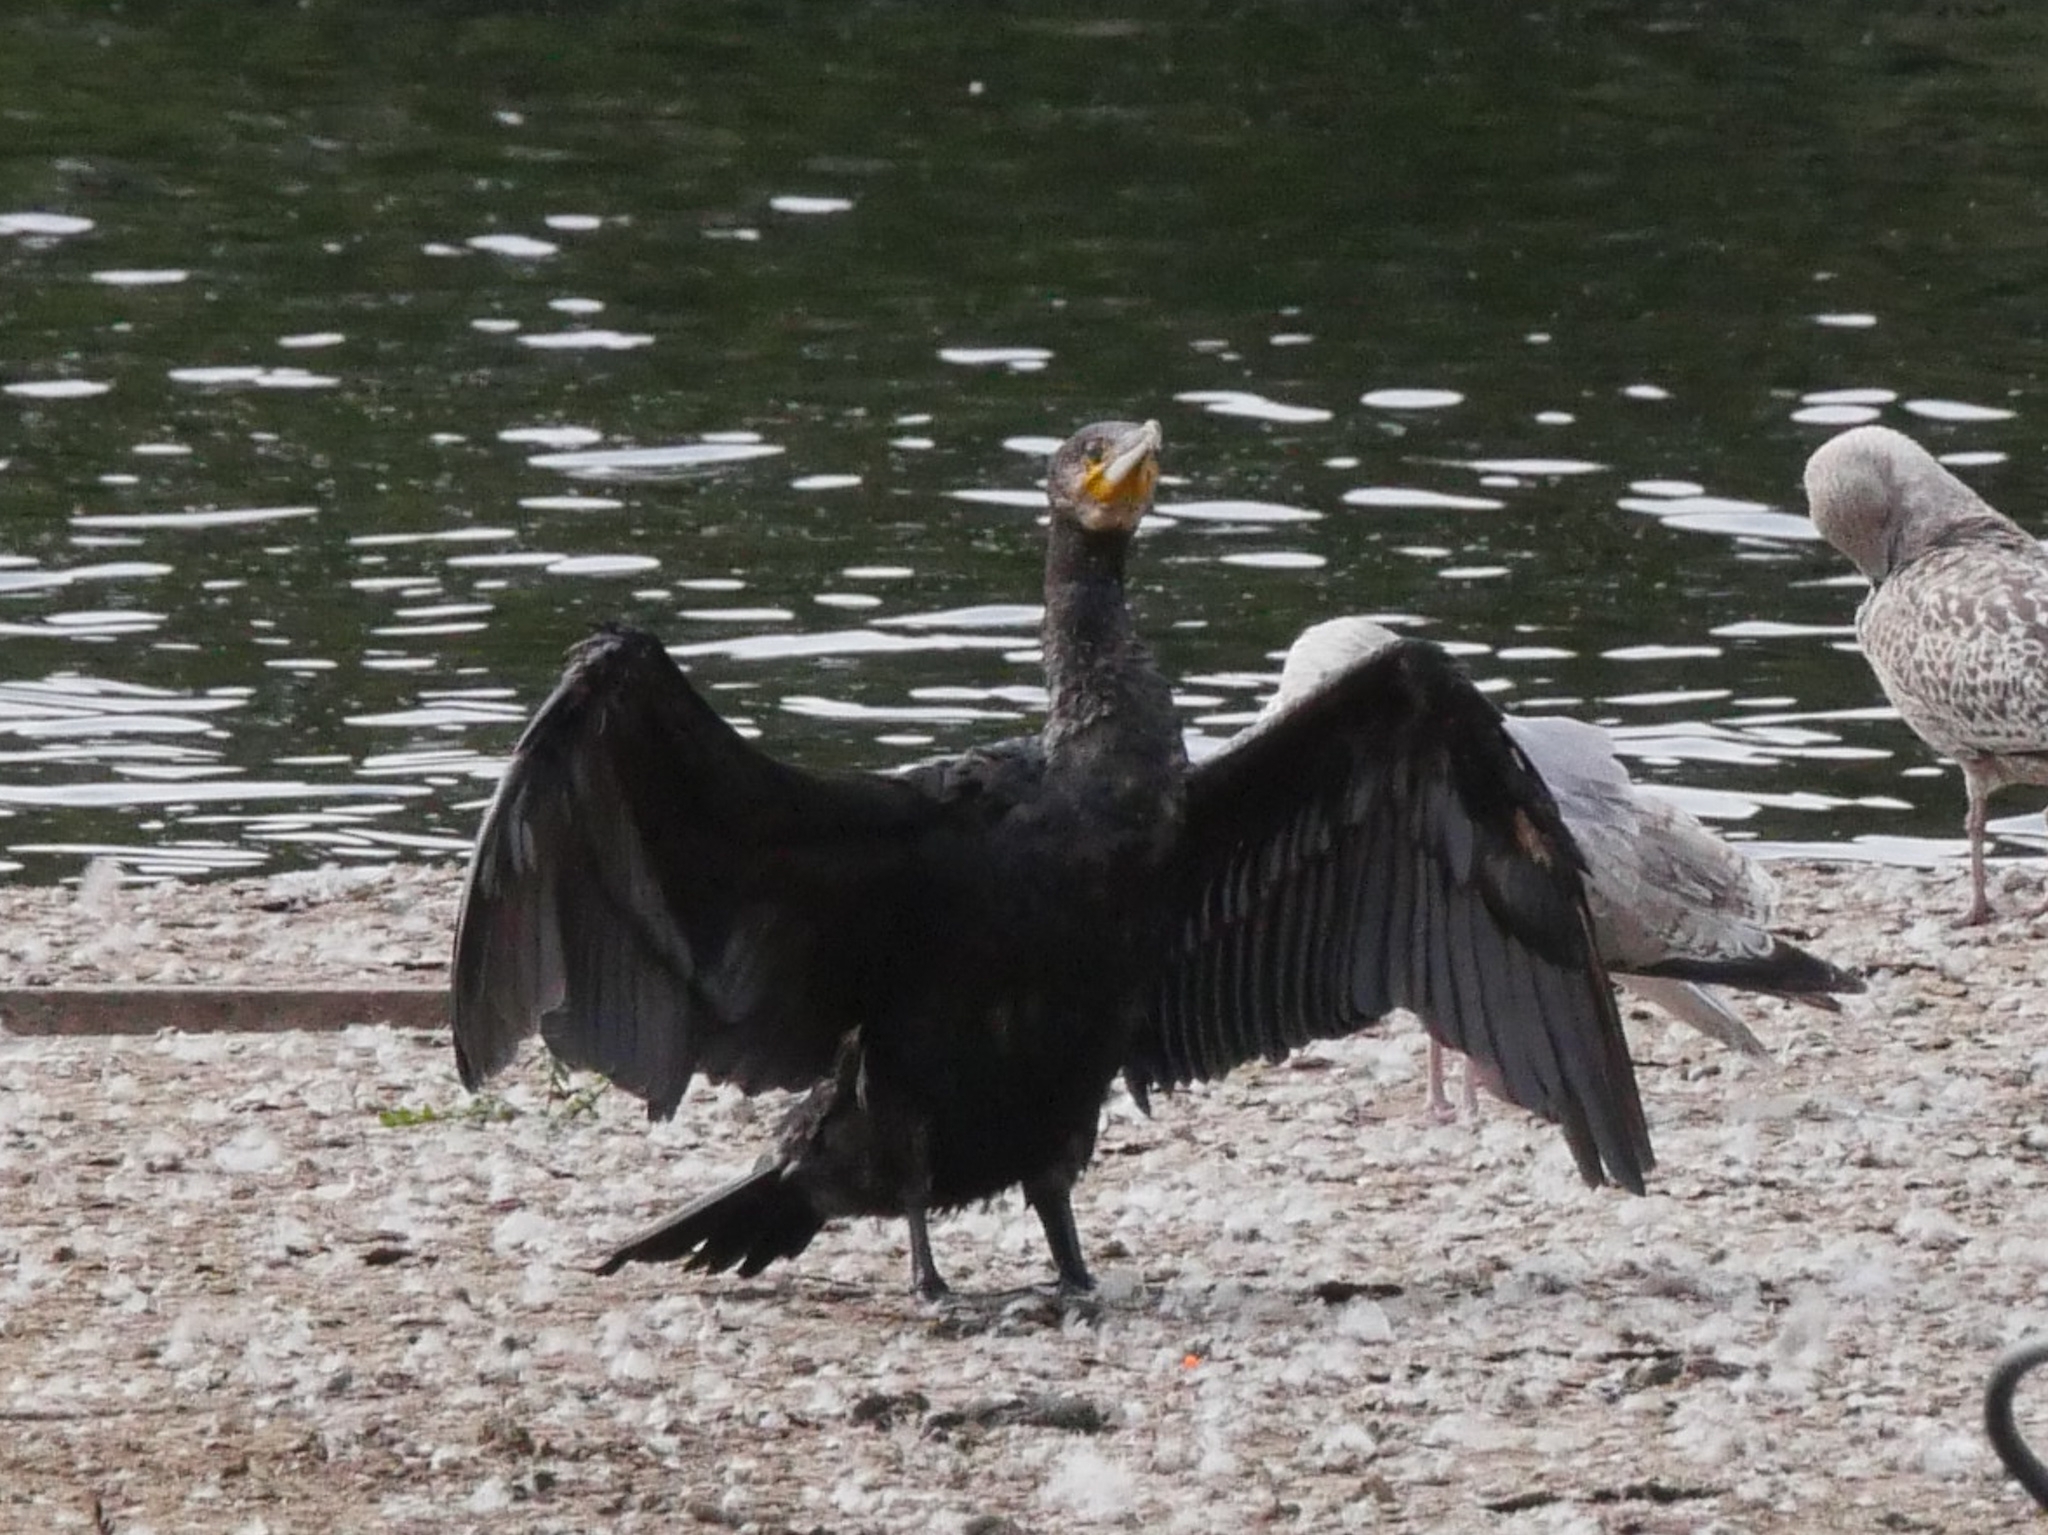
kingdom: Animalia
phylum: Chordata
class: Aves
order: Suliformes
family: Phalacrocoracidae
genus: Phalacrocorax
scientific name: Phalacrocorax carbo
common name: Great cormorant
